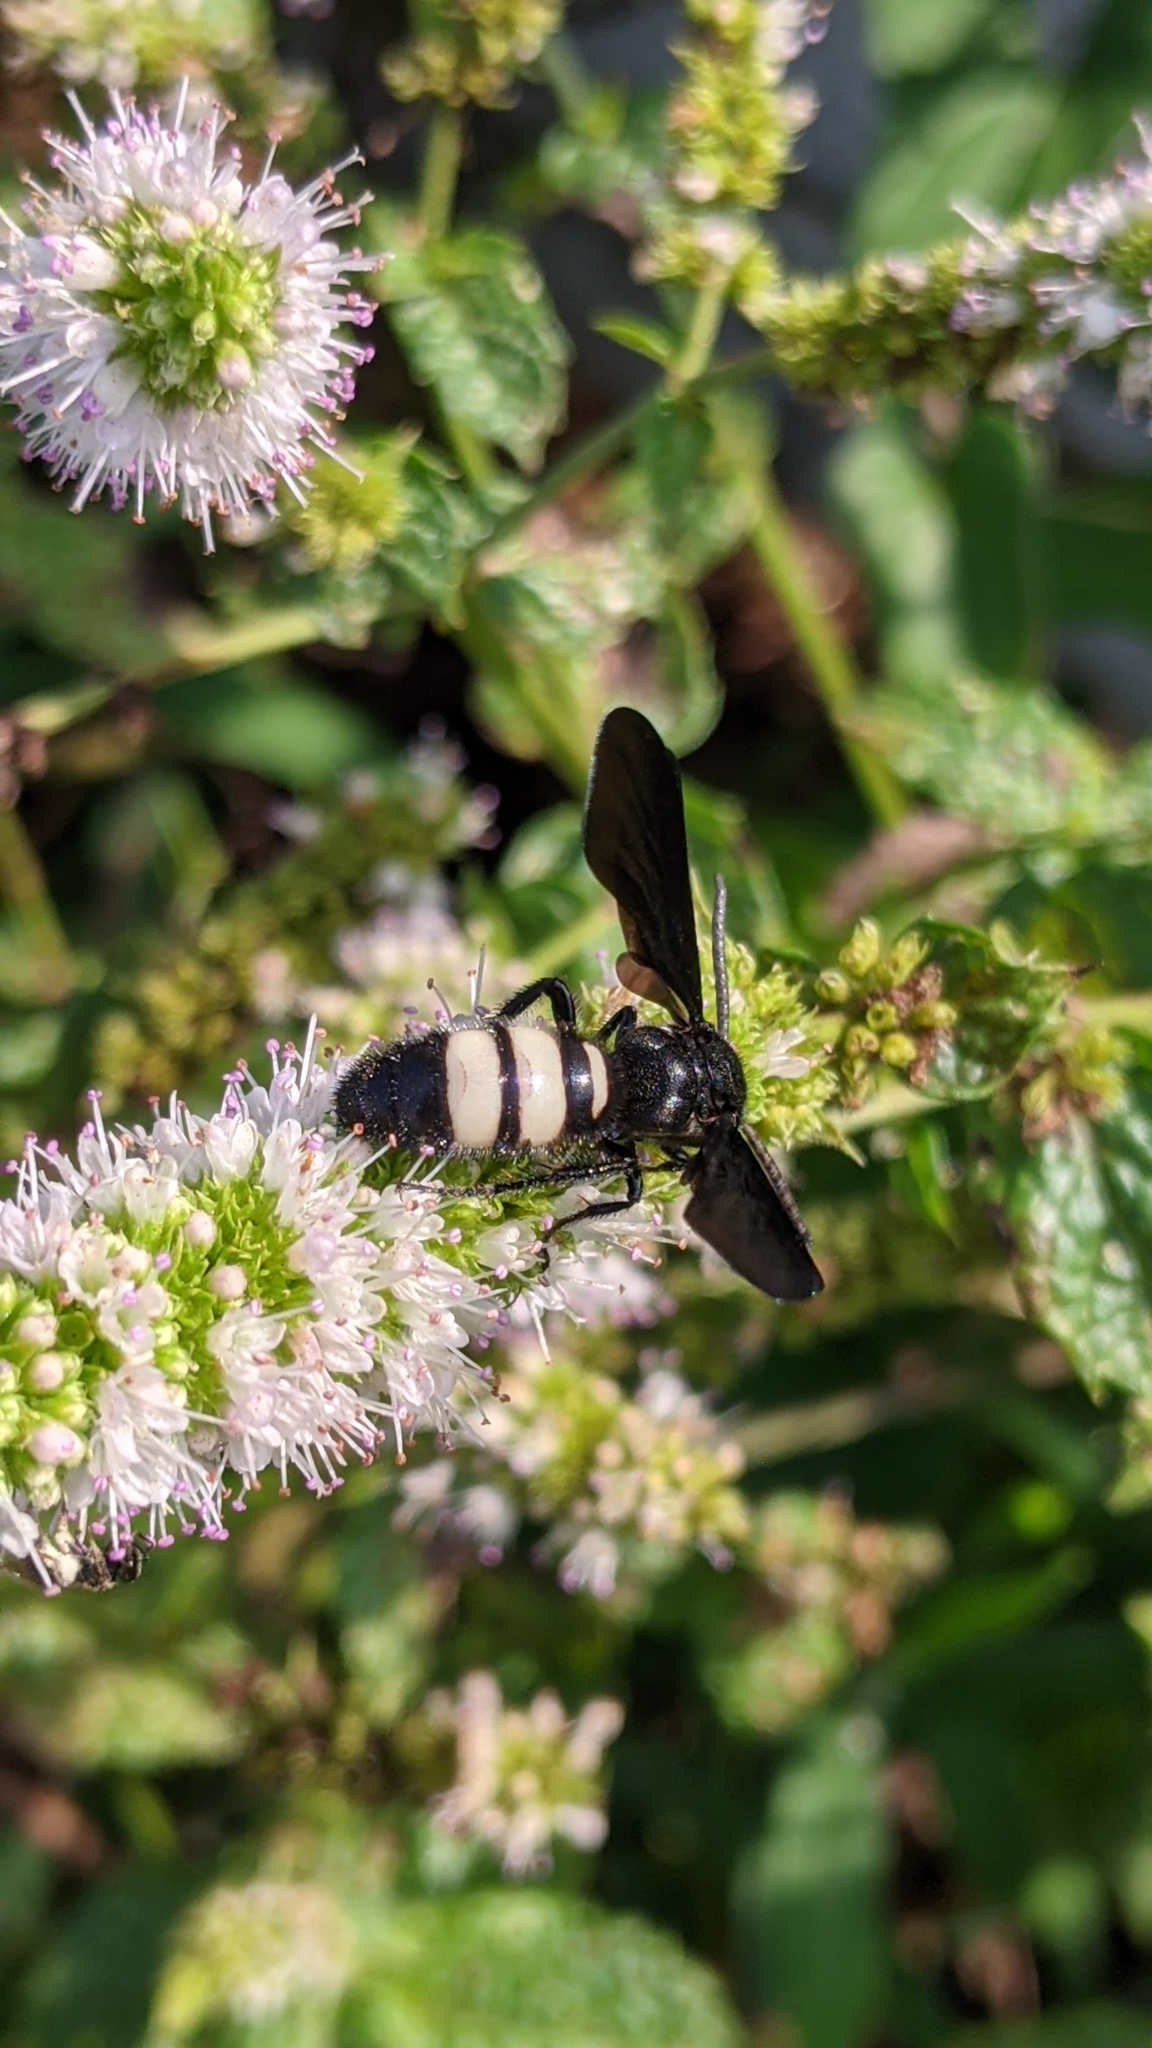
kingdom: Animalia
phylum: Arthropoda
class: Insecta
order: Hymenoptera
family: Scoliidae
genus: Scolia
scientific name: Scolia bicincta
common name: Double-banded scoliid wasp
